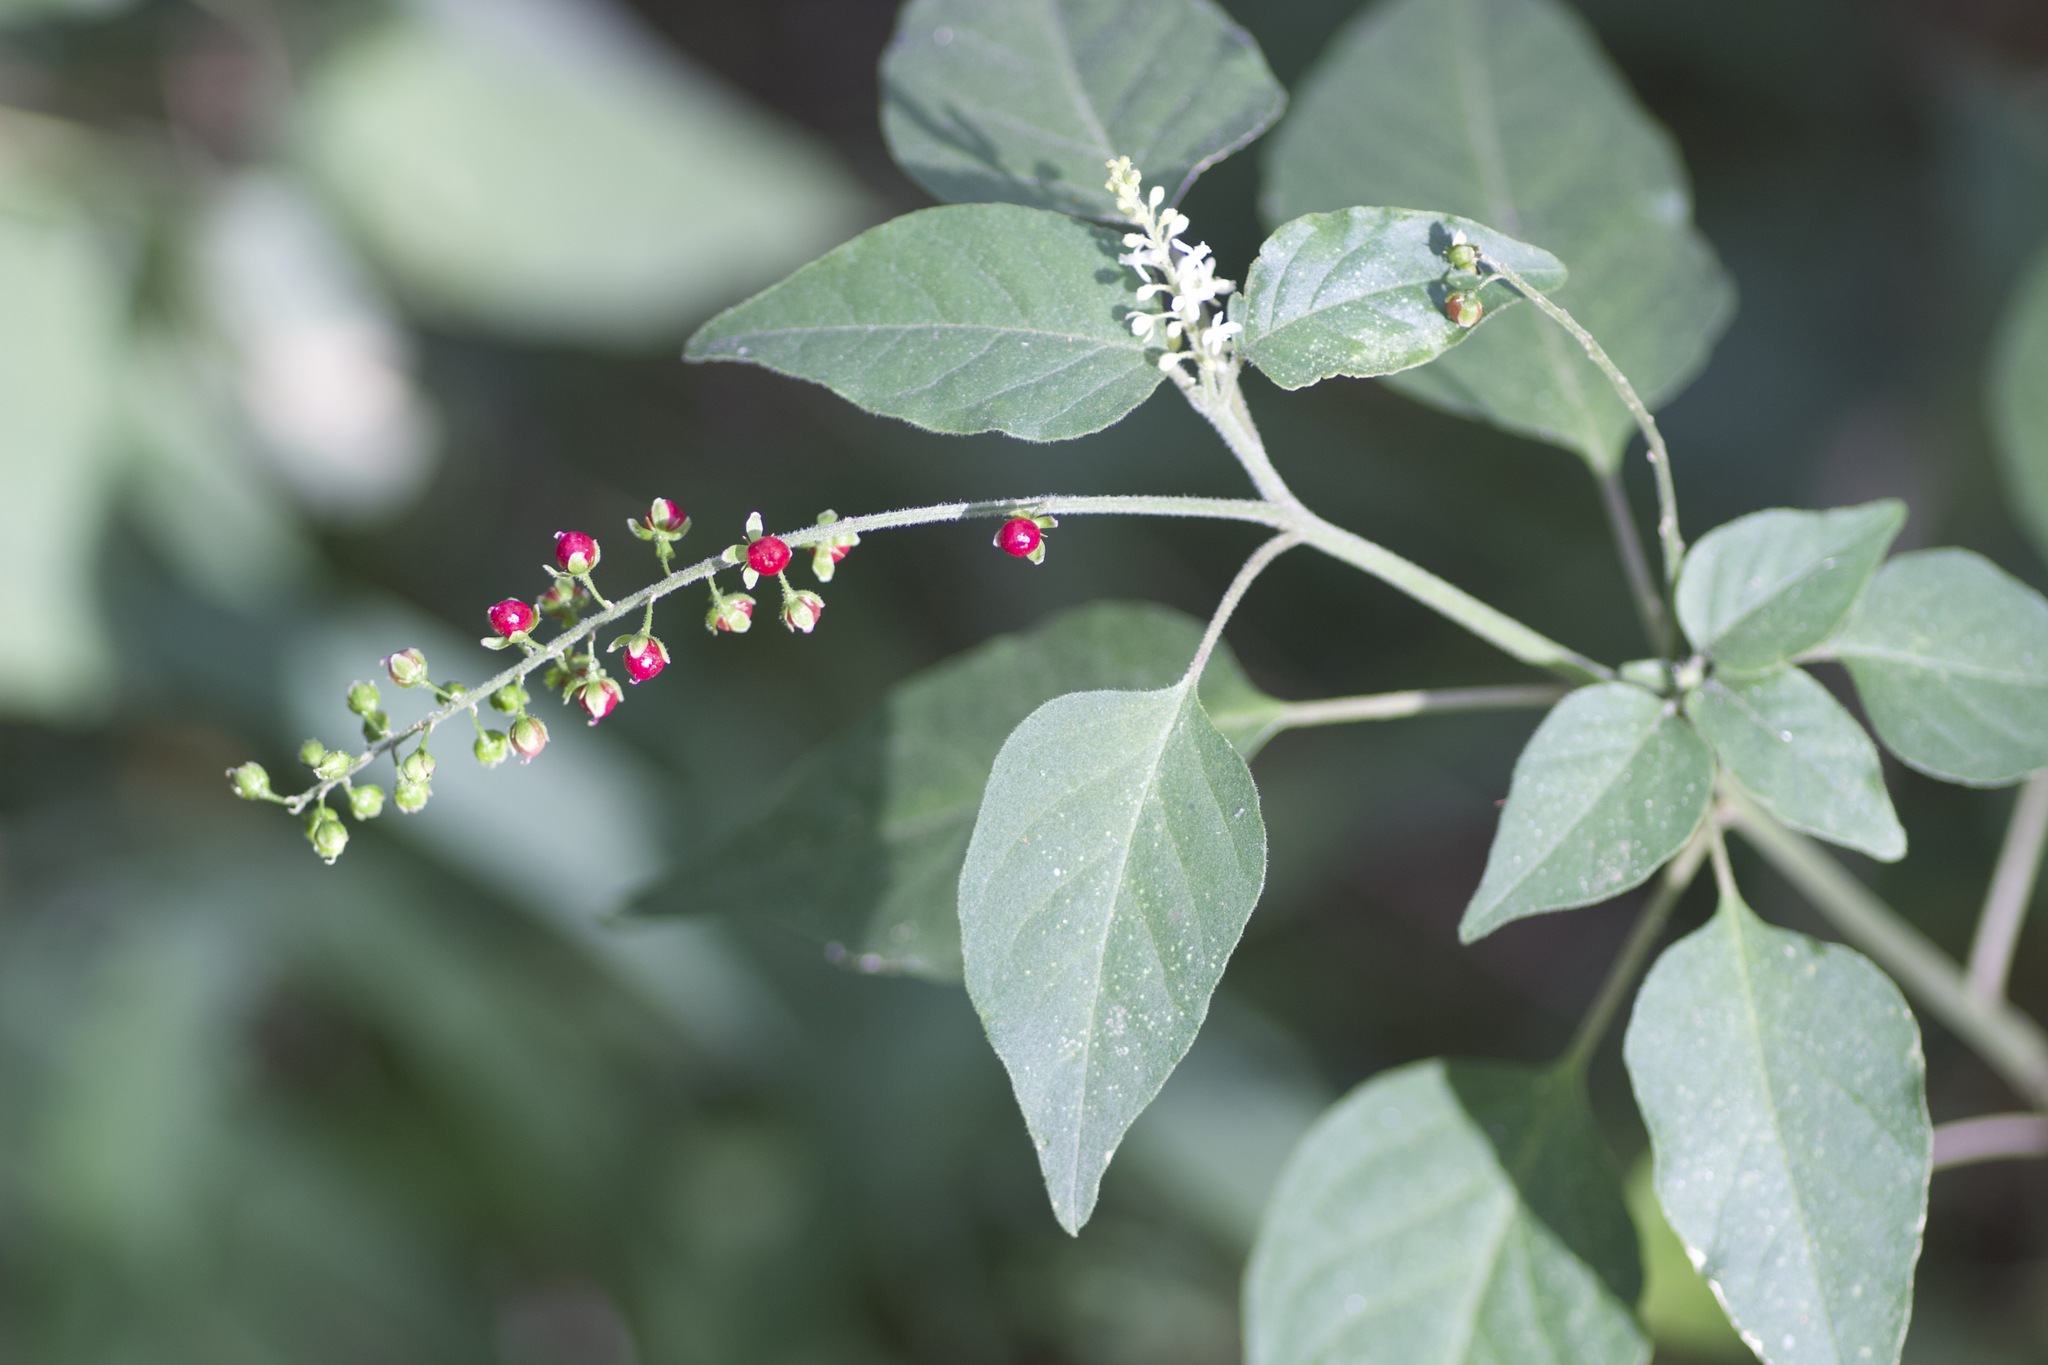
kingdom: Plantae
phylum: Tracheophyta
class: Magnoliopsida
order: Caryophyllales
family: Phytolaccaceae
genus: Rivina
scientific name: Rivina humilis
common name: Rougeplant
